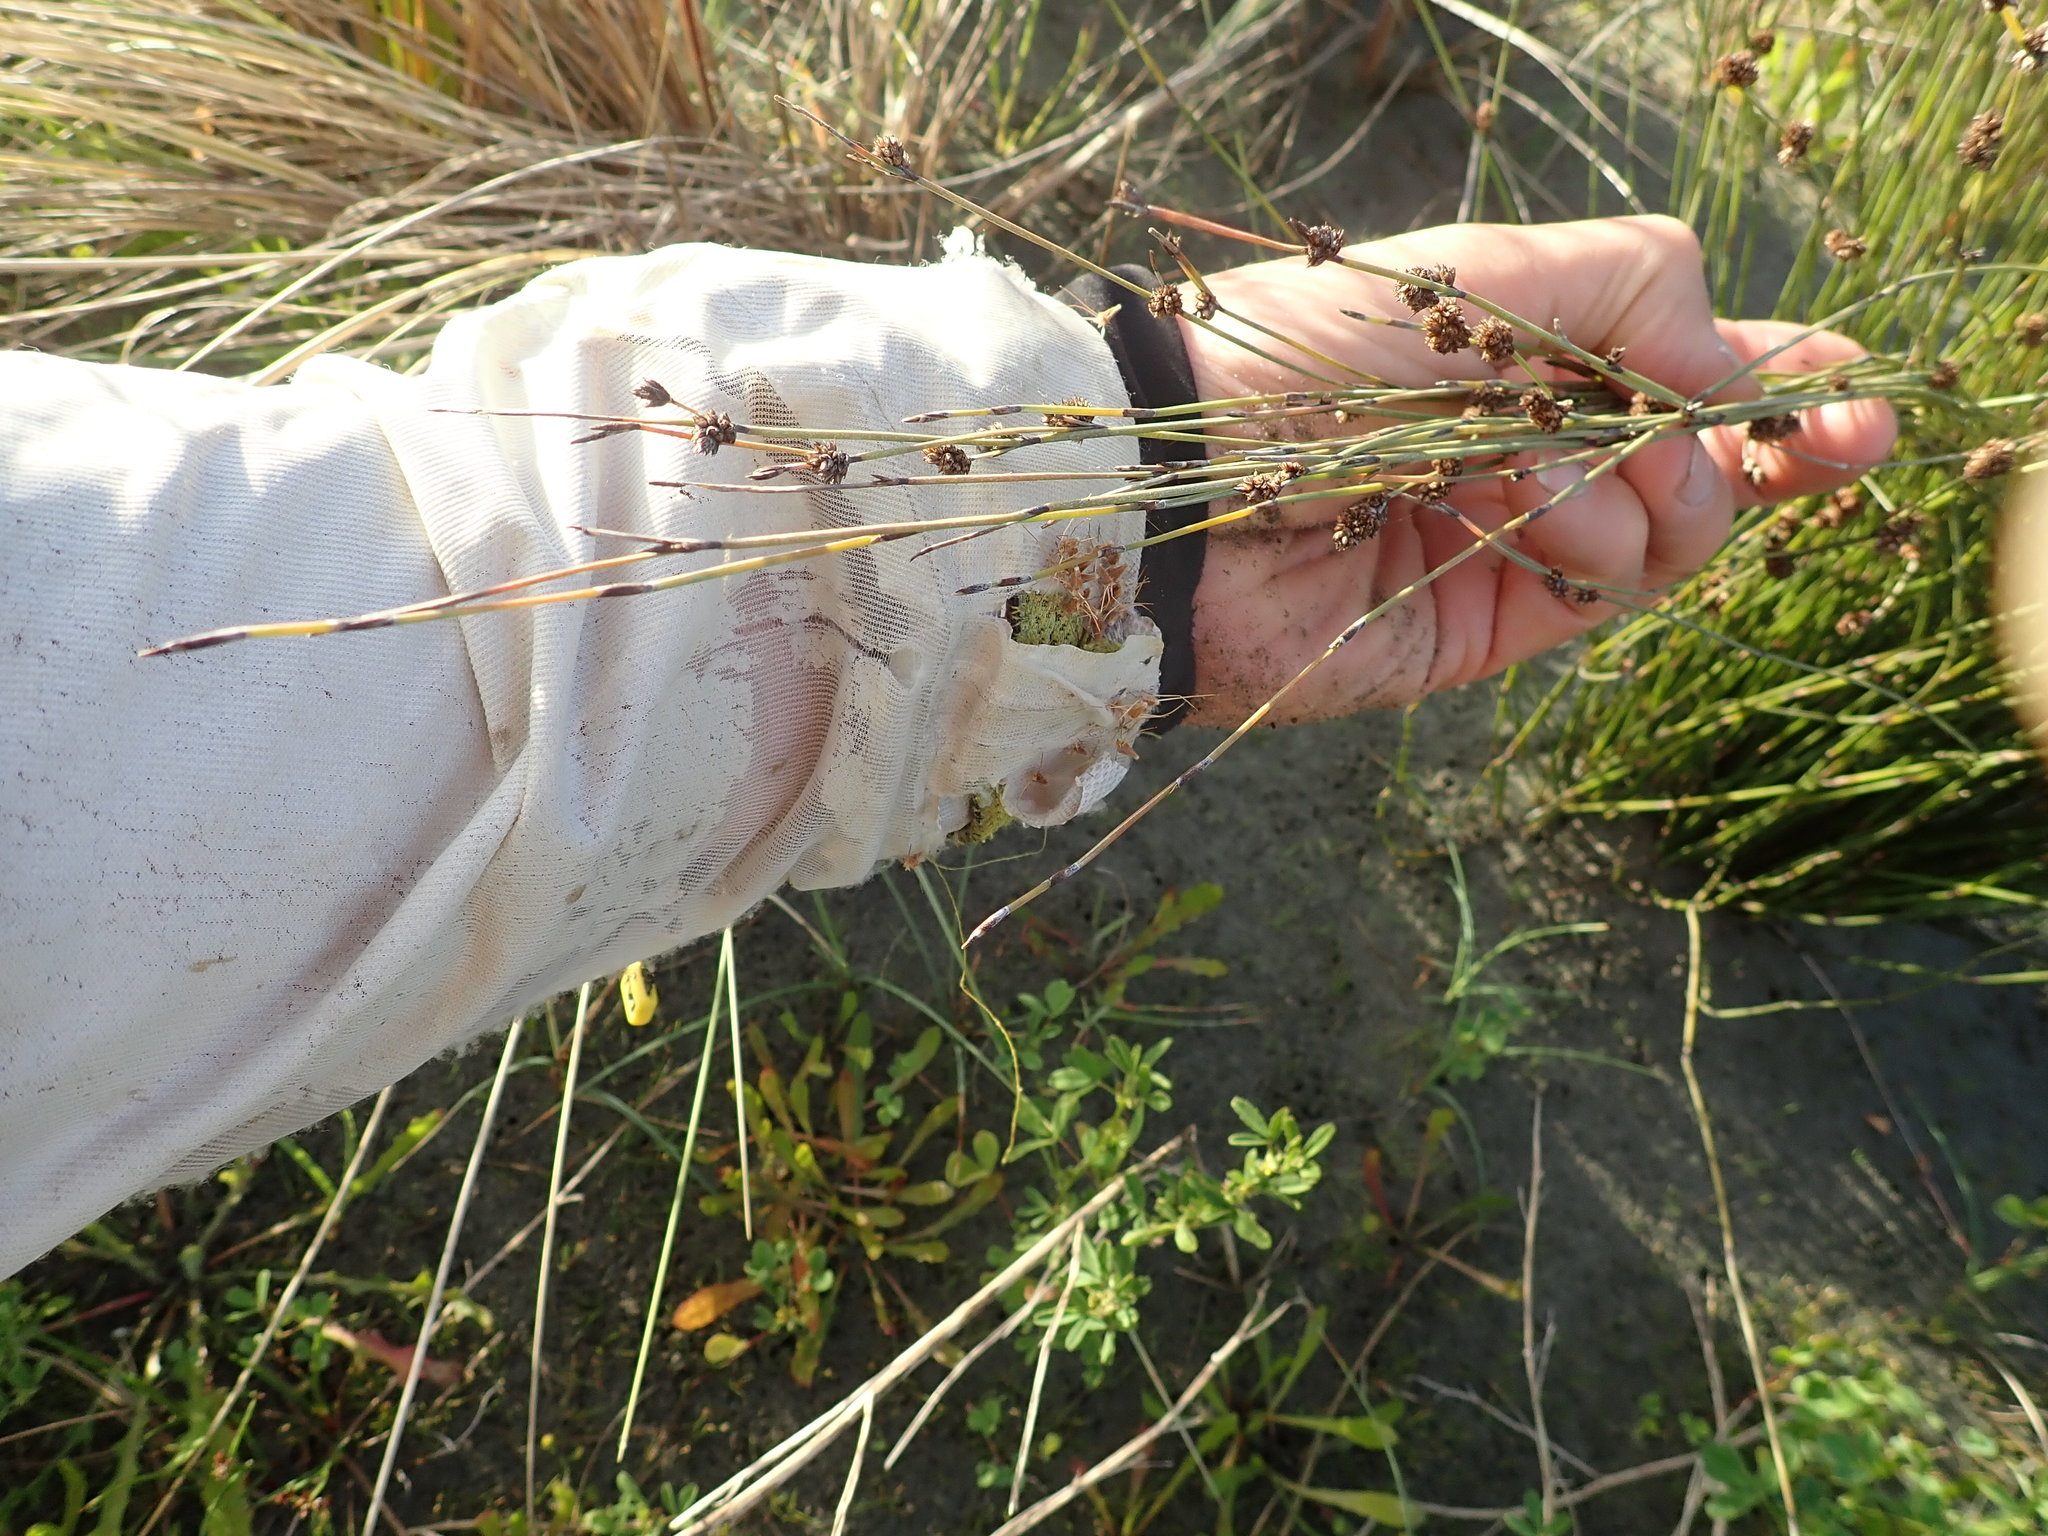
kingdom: Plantae
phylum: Tracheophyta
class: Liliopsida
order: Poales
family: Restionaceae
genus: Apodasmia
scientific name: Apodasmia similis
